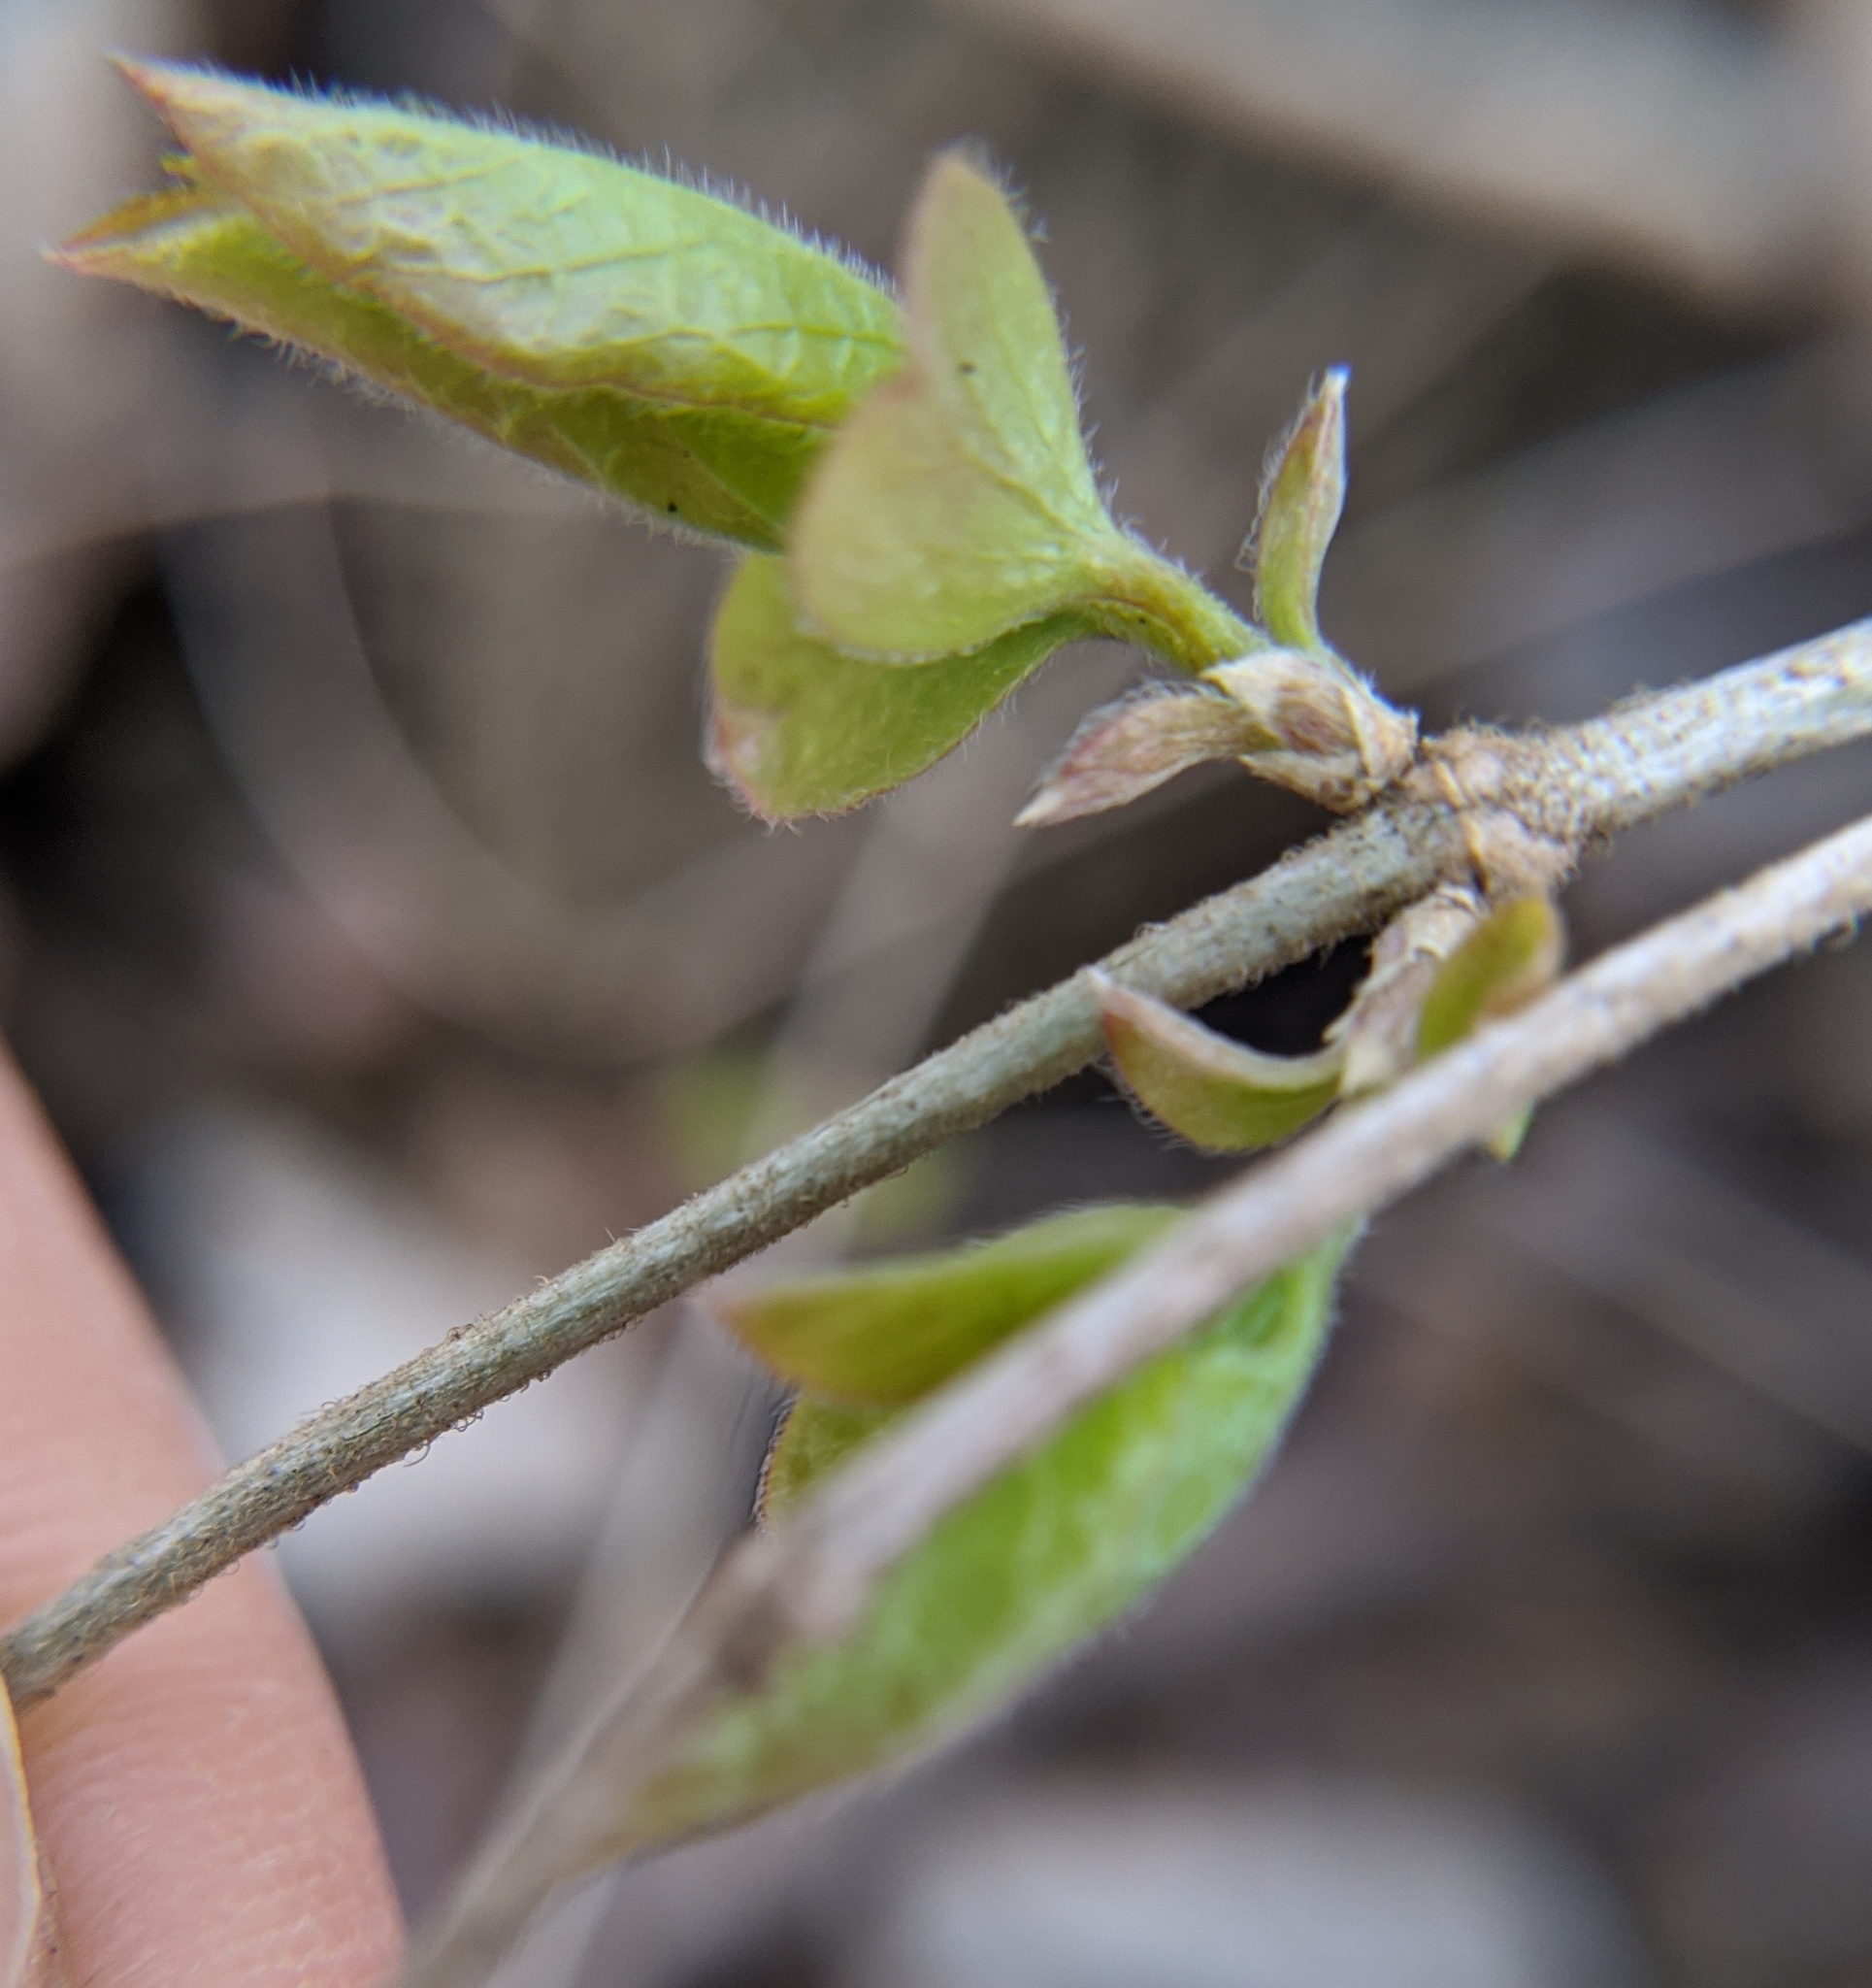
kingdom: Plantae
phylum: Tracheophyta
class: Magnoliopsida
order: Dipsacales
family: Caprifoliaceae
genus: Lonicera
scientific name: Lonicera maackii
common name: Amur honeysuckle
